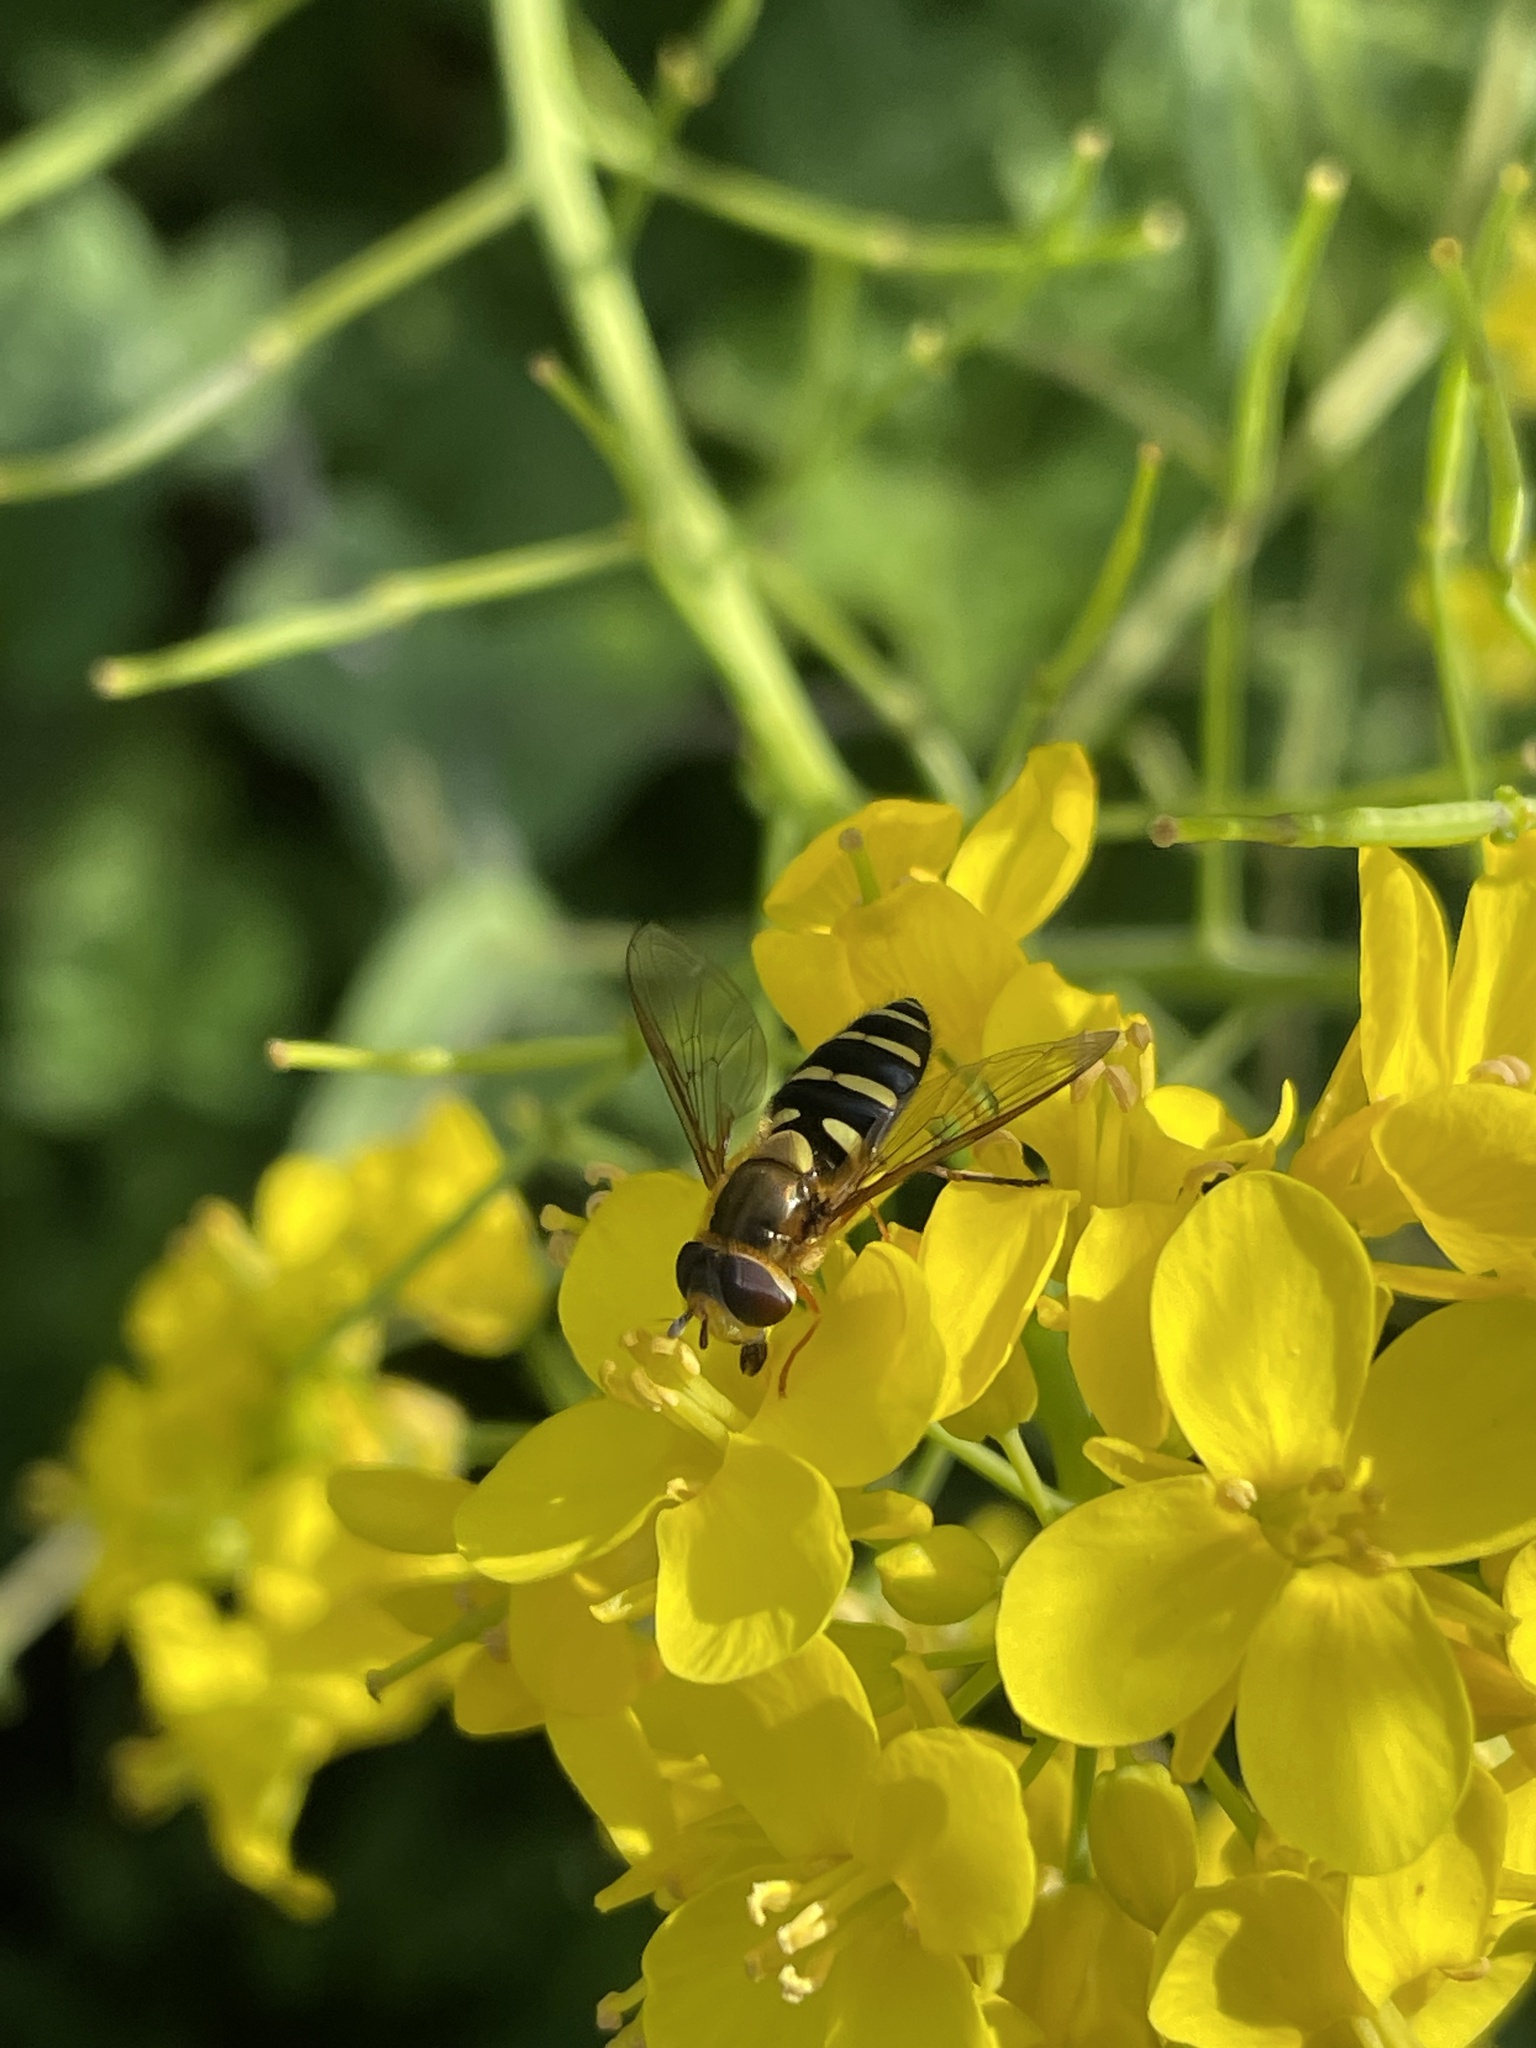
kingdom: Animalia
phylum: Arthropoda
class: Insecta
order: Diptera
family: Syrphidae
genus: Syrphus
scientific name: Syrphus opinator
